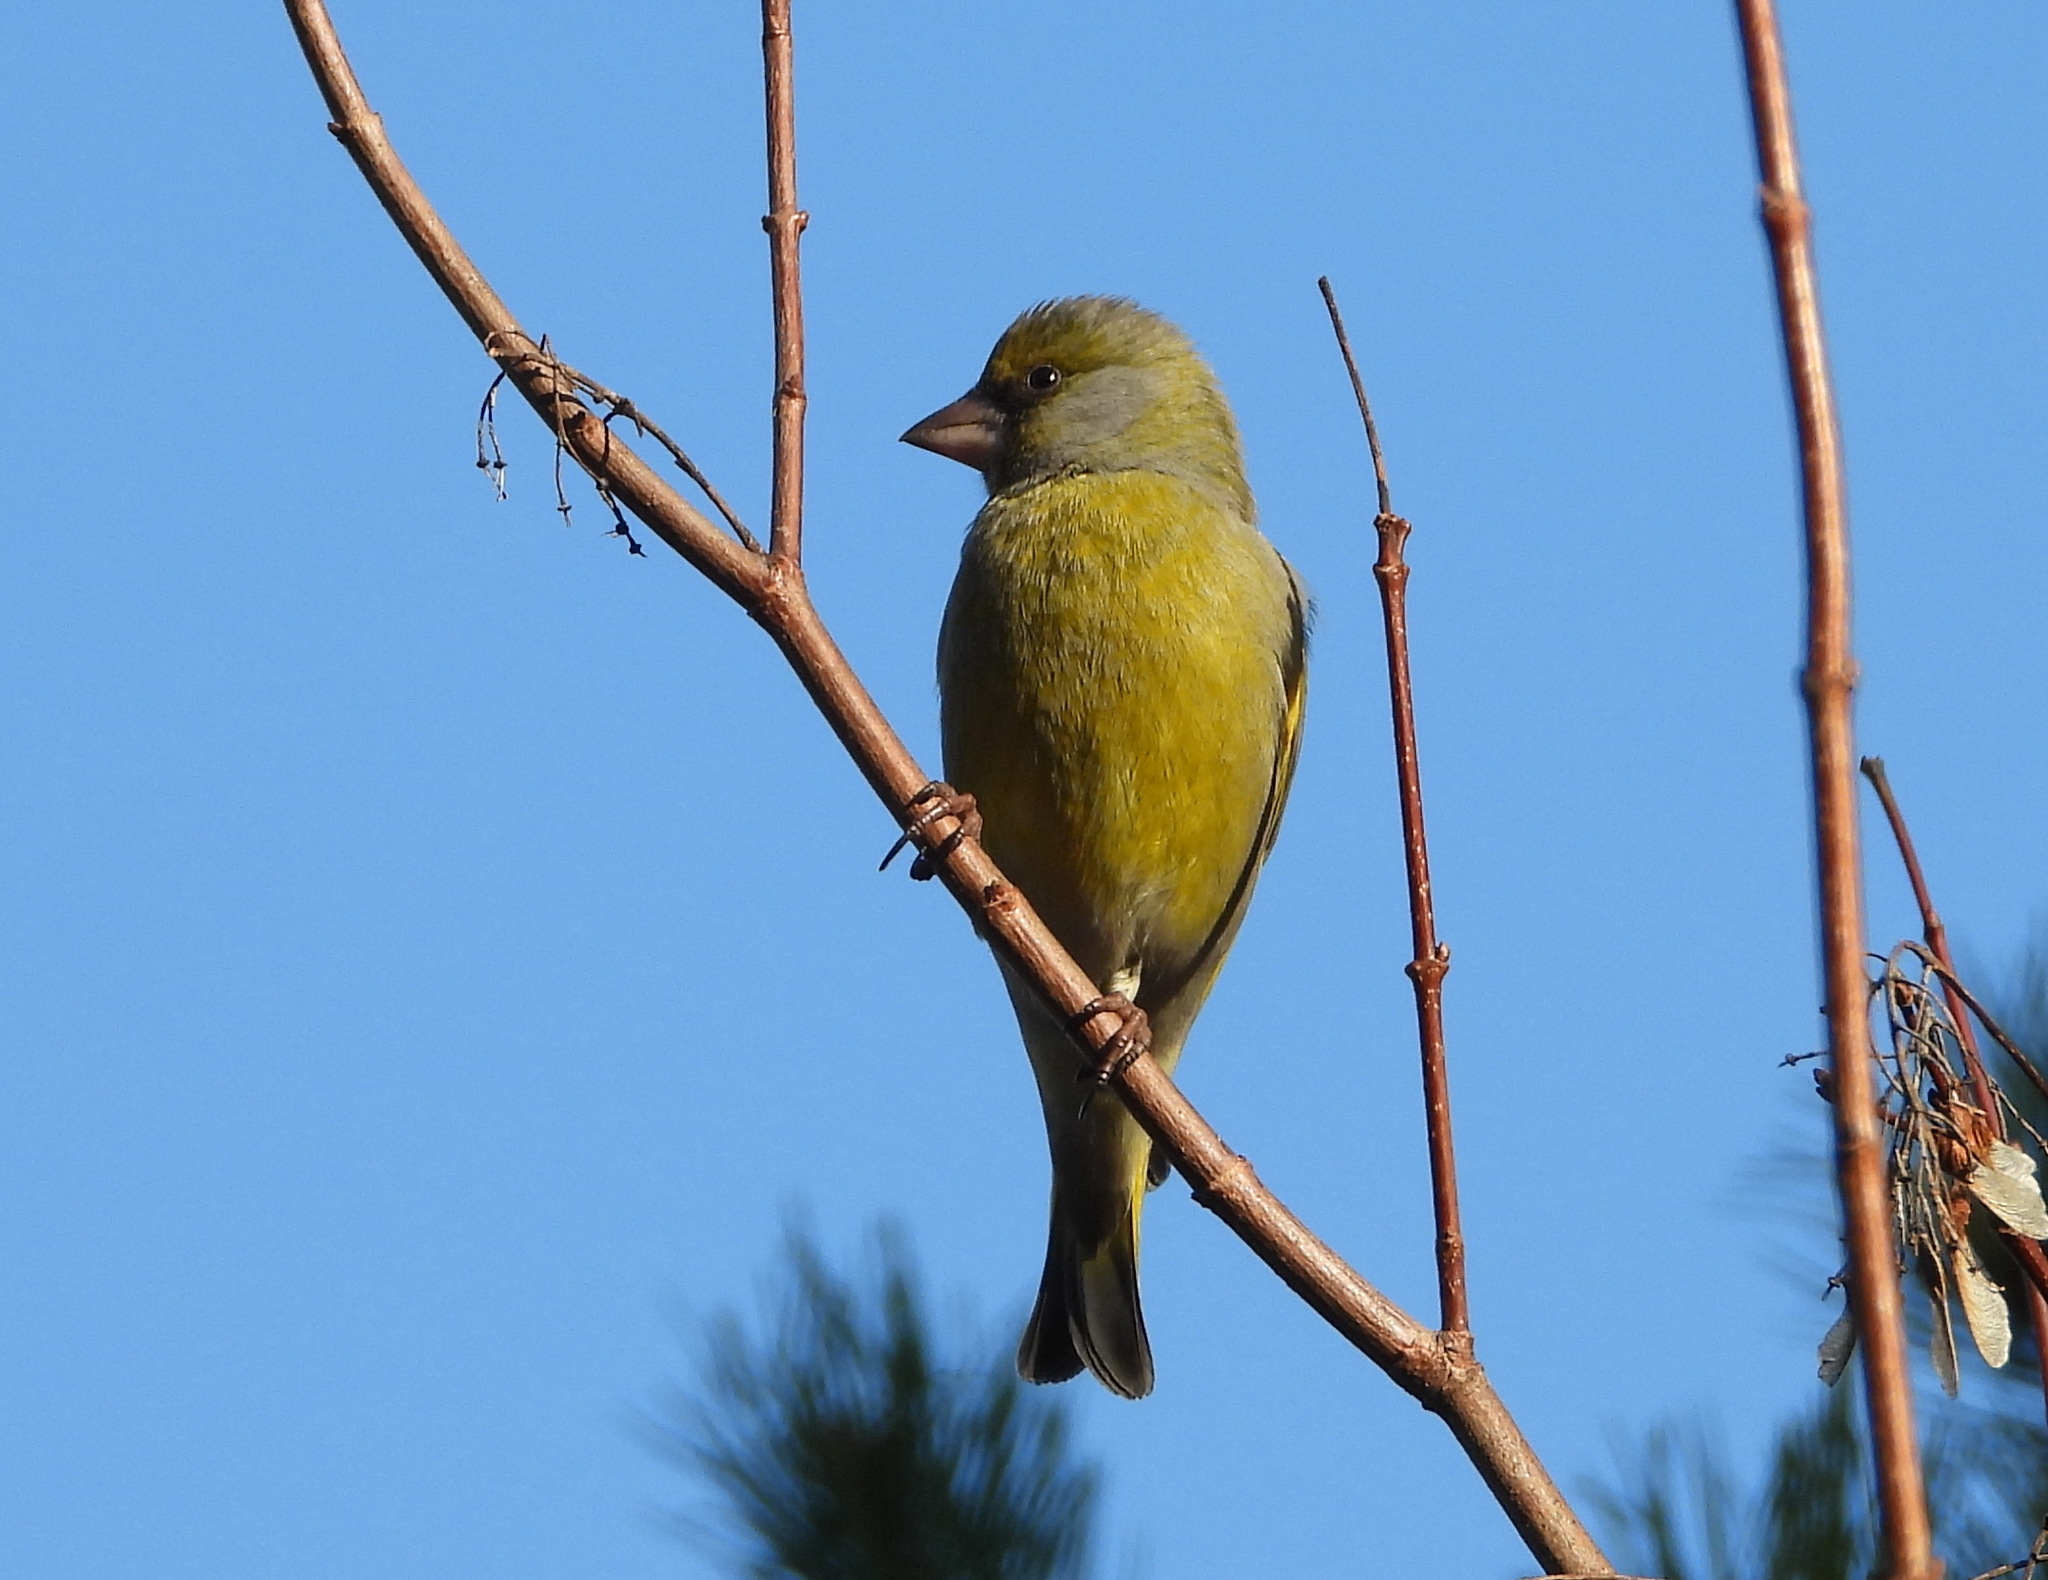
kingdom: Plantae
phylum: Tracheophyta
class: Liliopsida
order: Poales
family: Poaceae
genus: Chloris
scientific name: Chloris chloris
